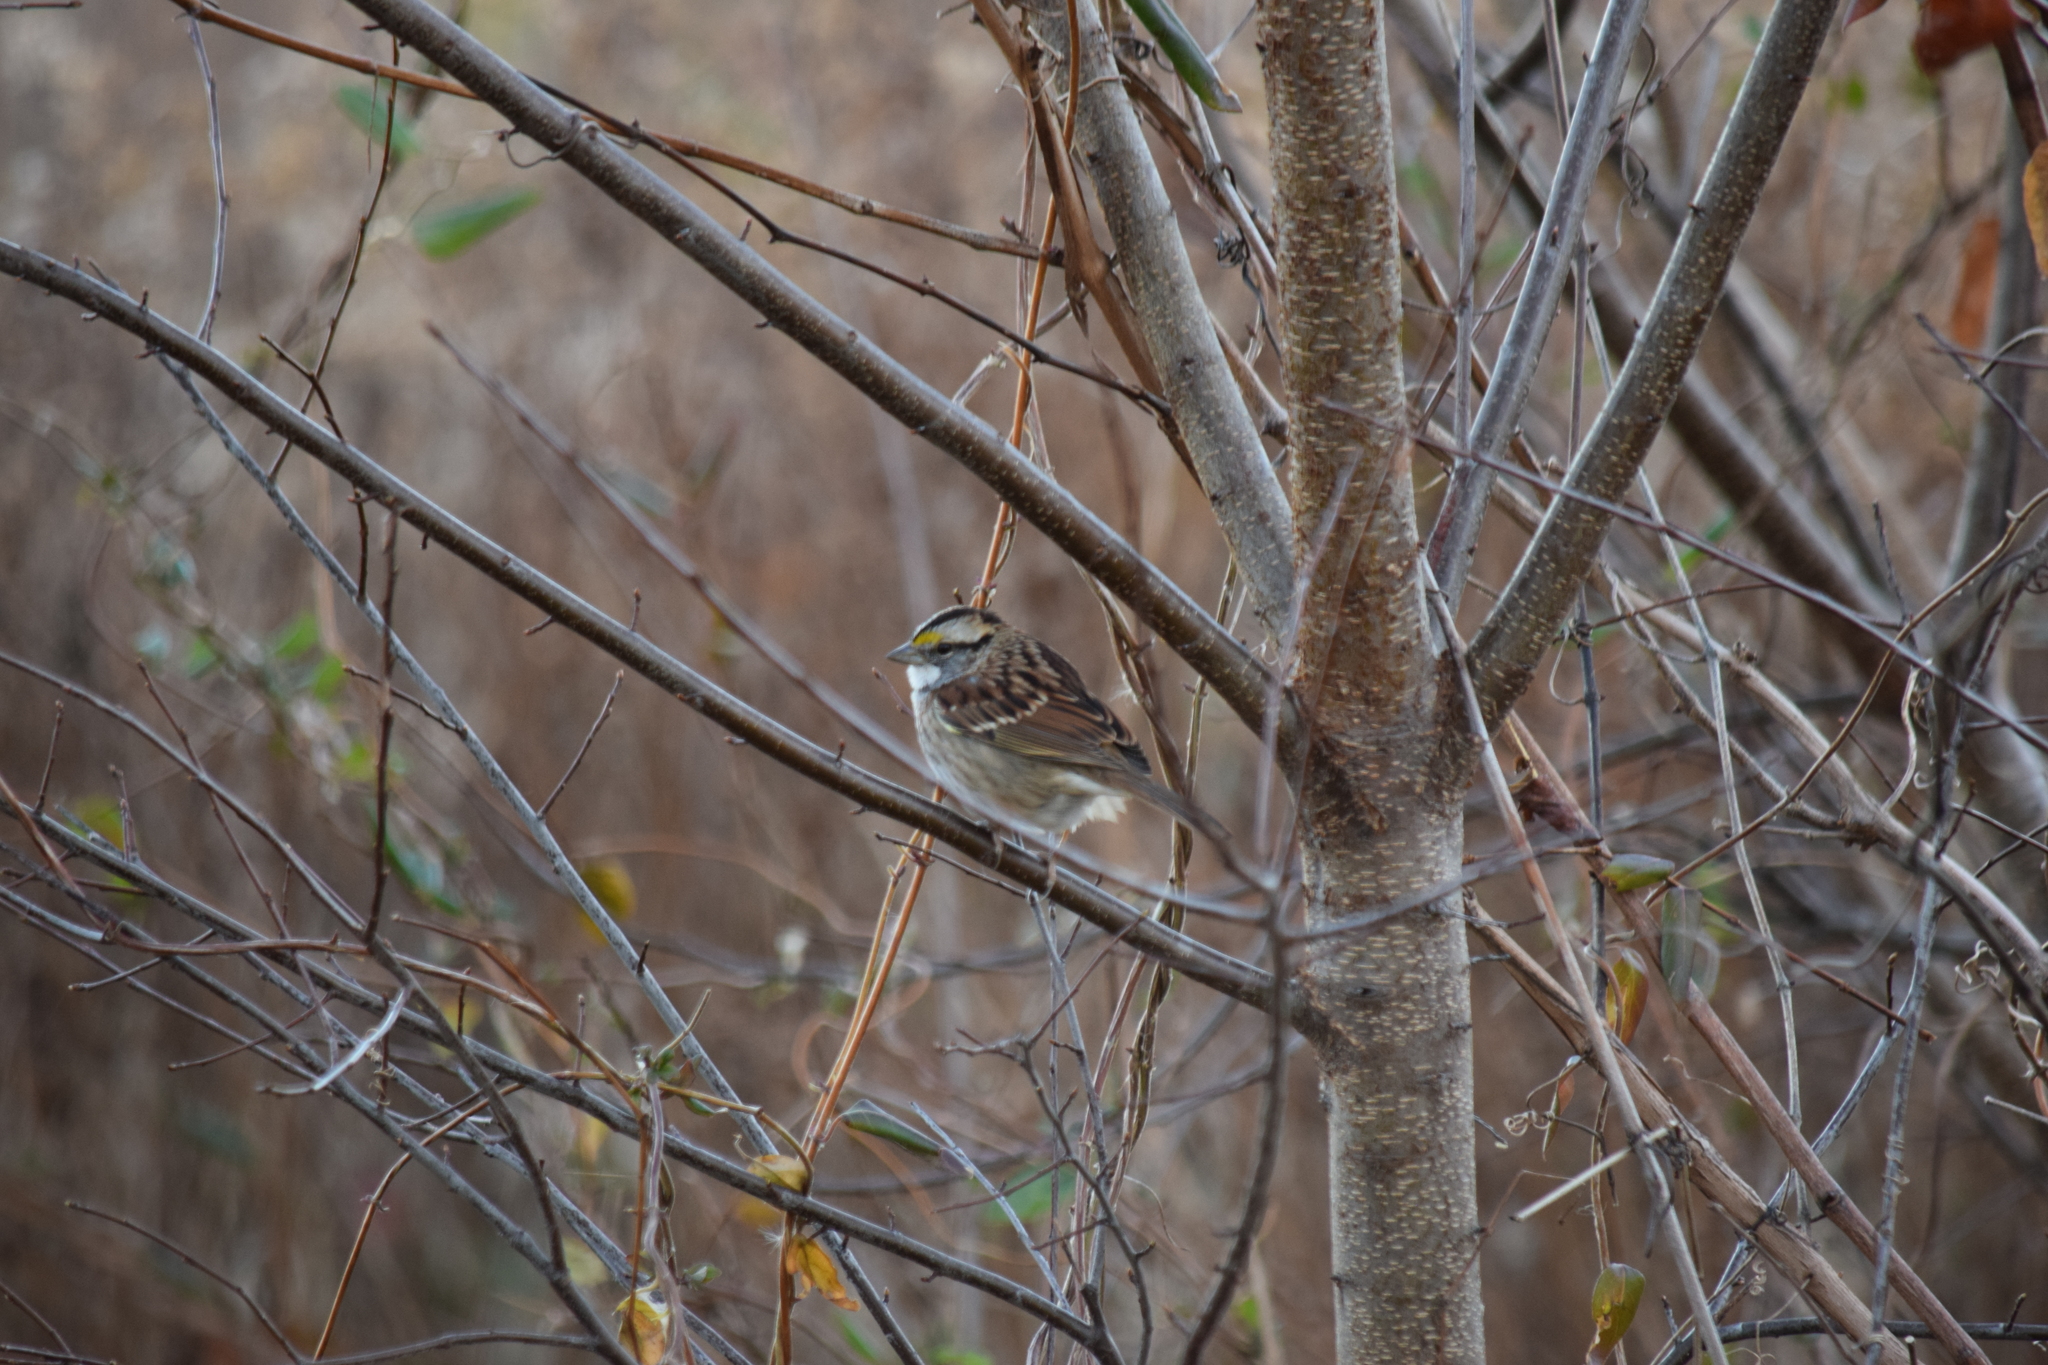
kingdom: Animalia
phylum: Chordata
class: Aves
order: Passeriformes
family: Passerellidae
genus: Zonotrichia
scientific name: Zonotrichia albicollis
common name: White-throated sparrow
